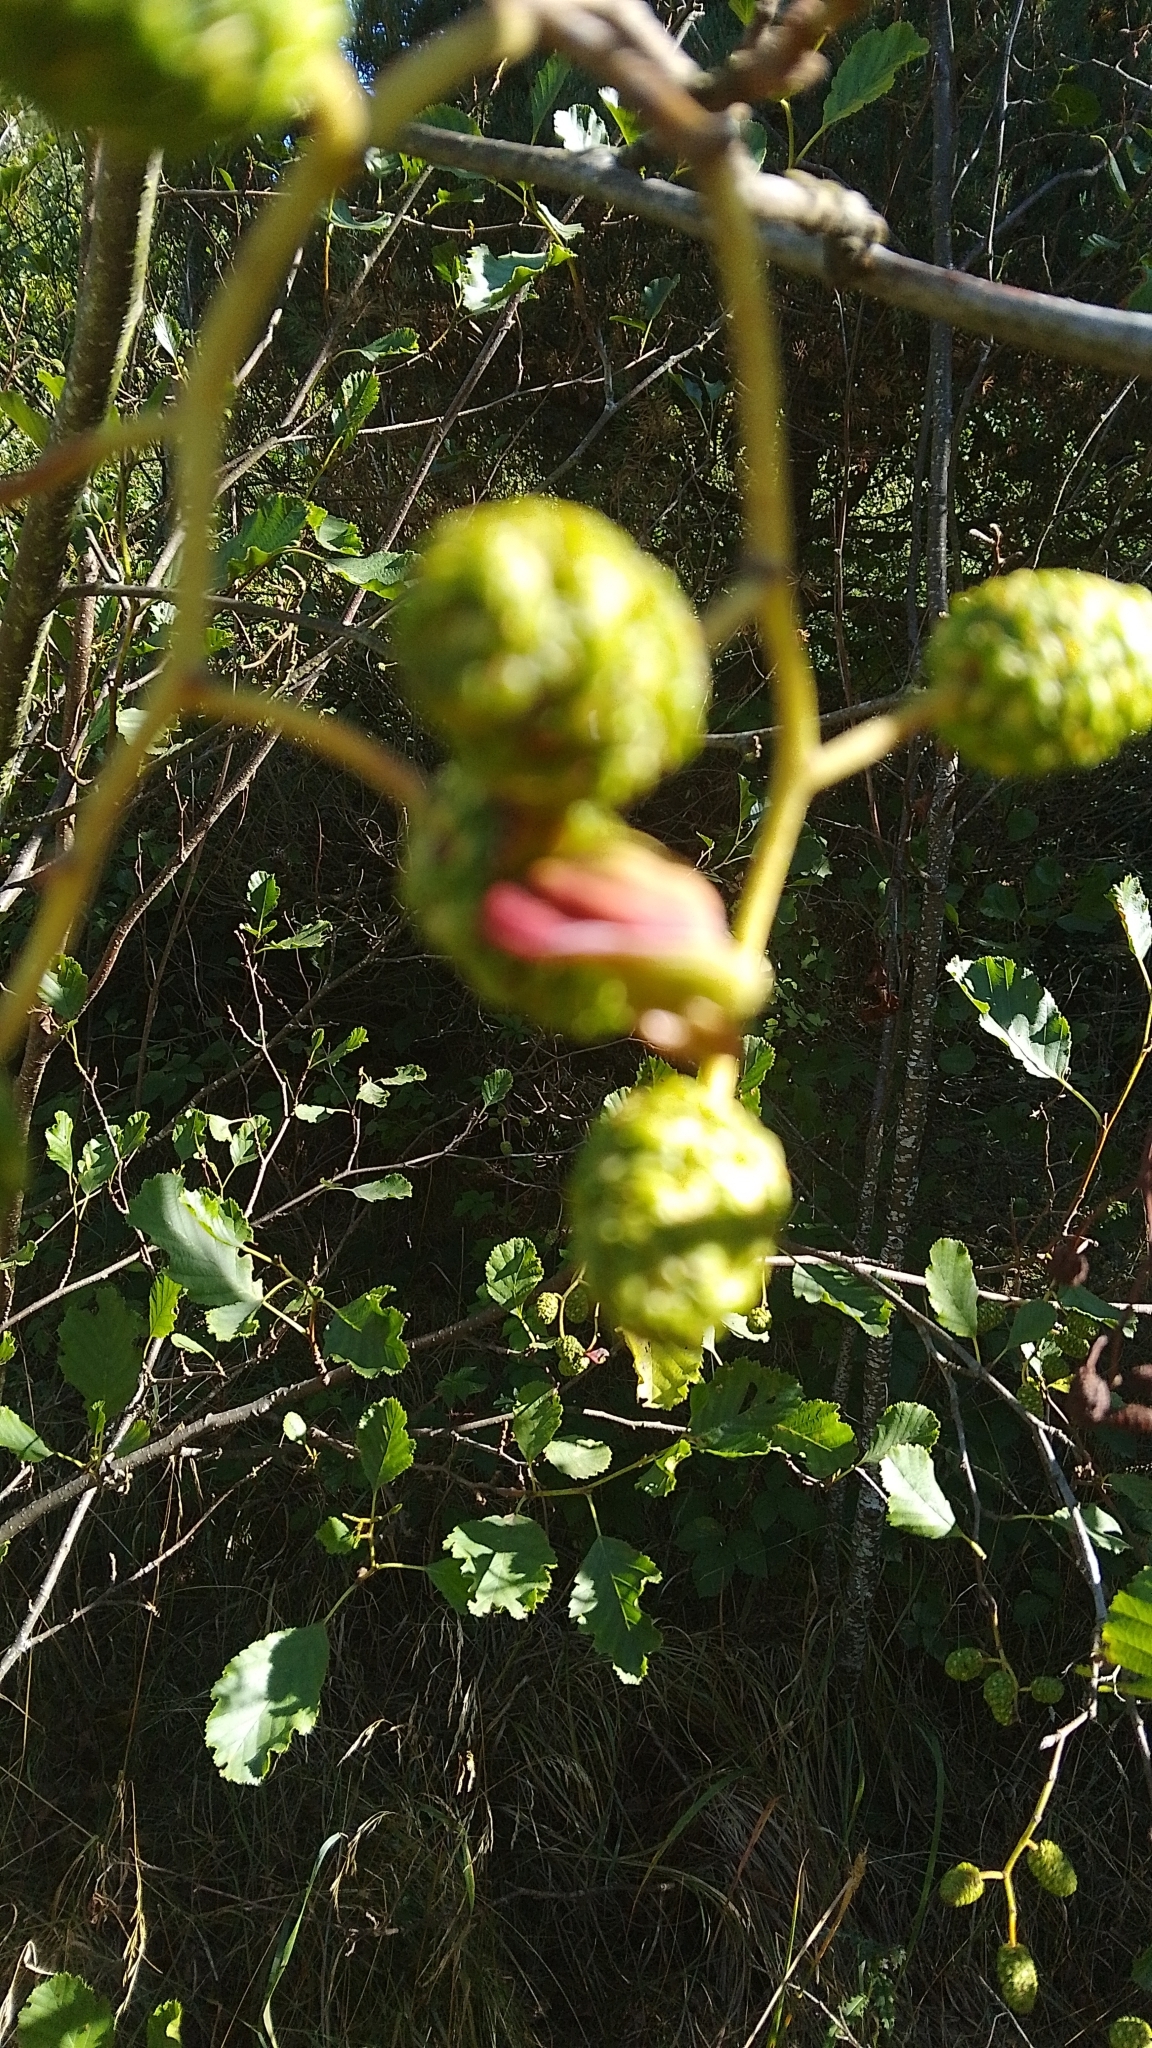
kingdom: Fungi
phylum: Ascomycota
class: Taphrinomycetes
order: Taphrinales
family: Taphrinaceae
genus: Taphrina
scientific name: Taphrina alni
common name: Alder tongue
